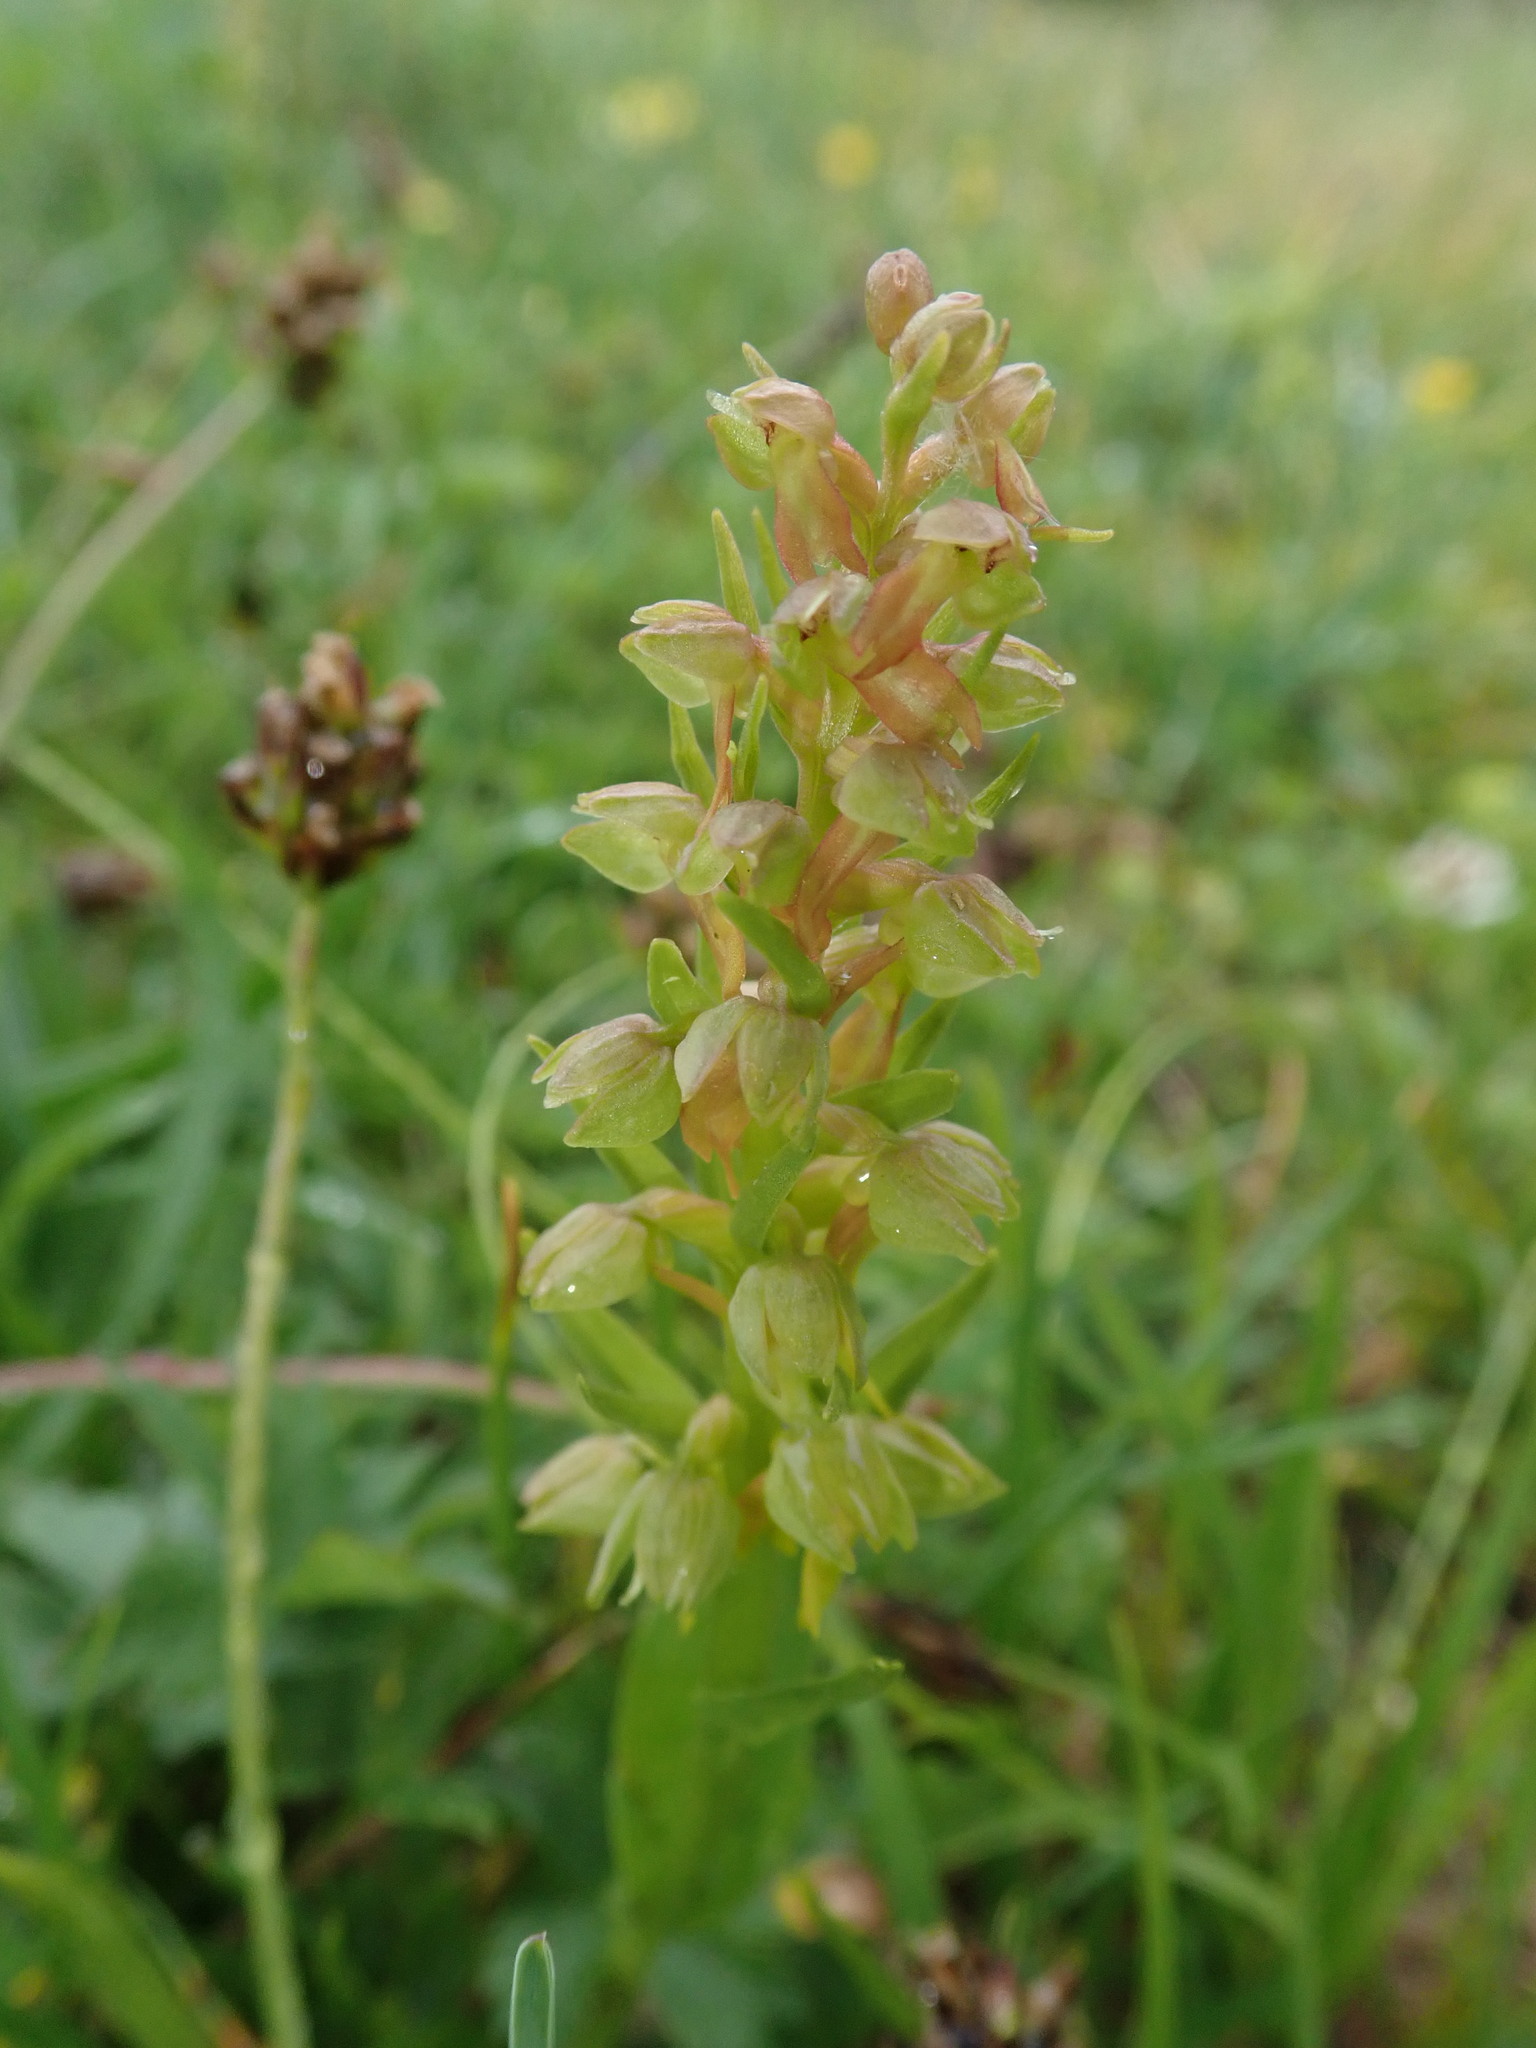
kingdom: Plantae
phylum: Tracheophyta
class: Liliopsida
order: Asparagales
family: Orchidaceae
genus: Dactylorhiza
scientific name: Dactylorhiza viridis
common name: Longbract frog orchid
